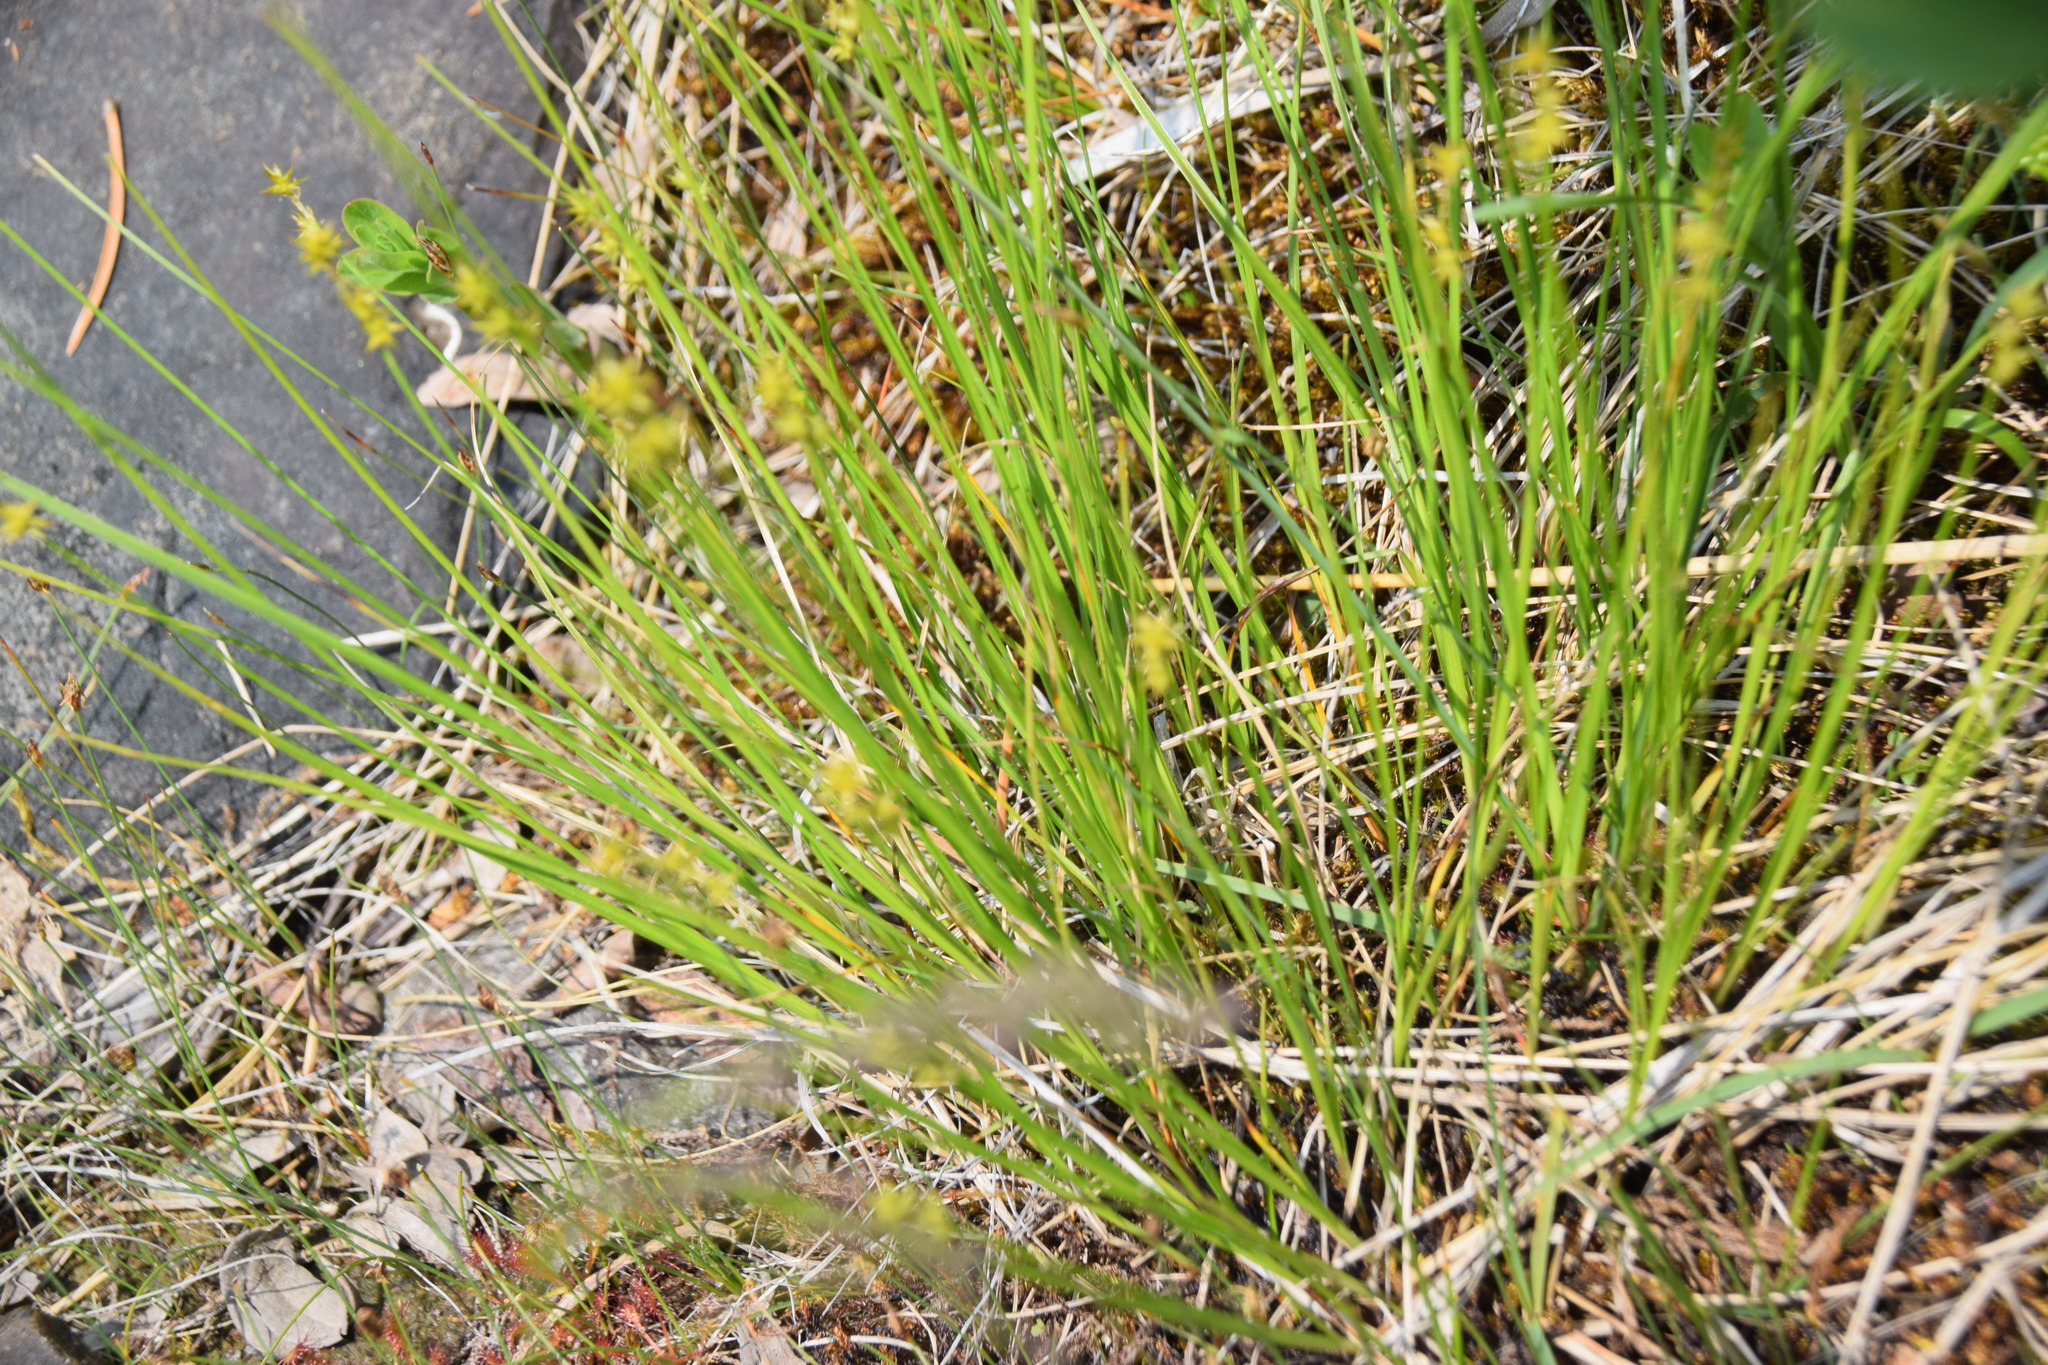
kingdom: Plantae
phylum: Tracheophyta
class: Liliopsida
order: Poales
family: Cyperaceae
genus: Carex
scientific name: Carex echinata
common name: Star sedge
